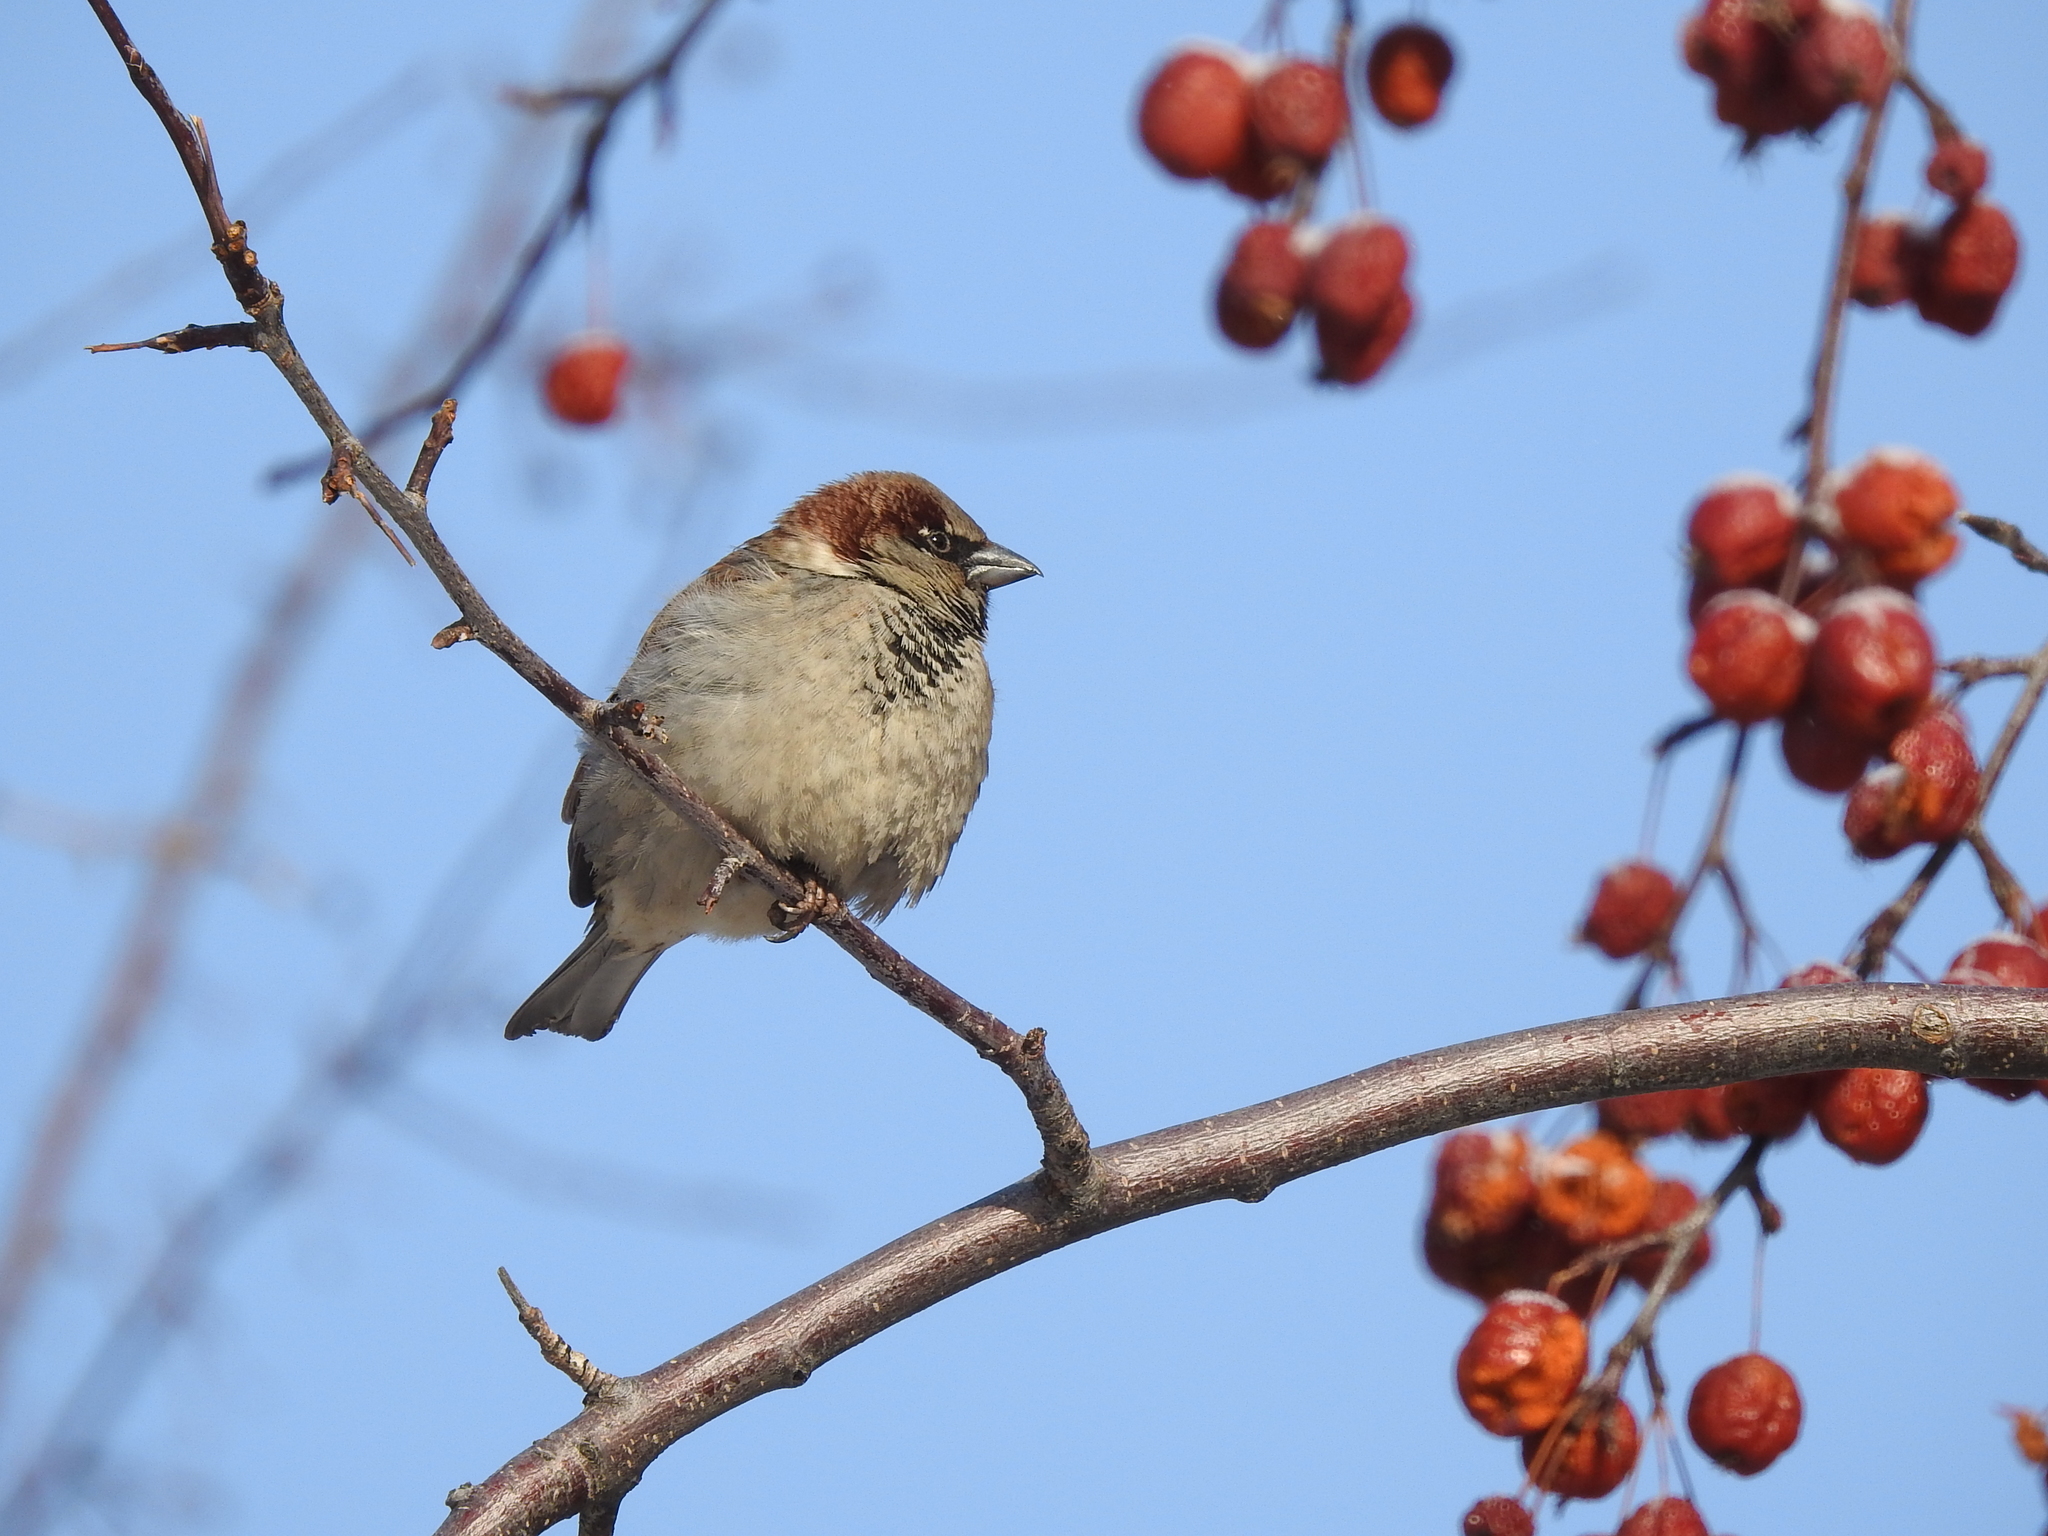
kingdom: Animalia
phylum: Chordata
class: Aves
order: Passeriformes
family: Passeridae
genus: Passer
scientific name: Passer domesticus
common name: House sparrow
